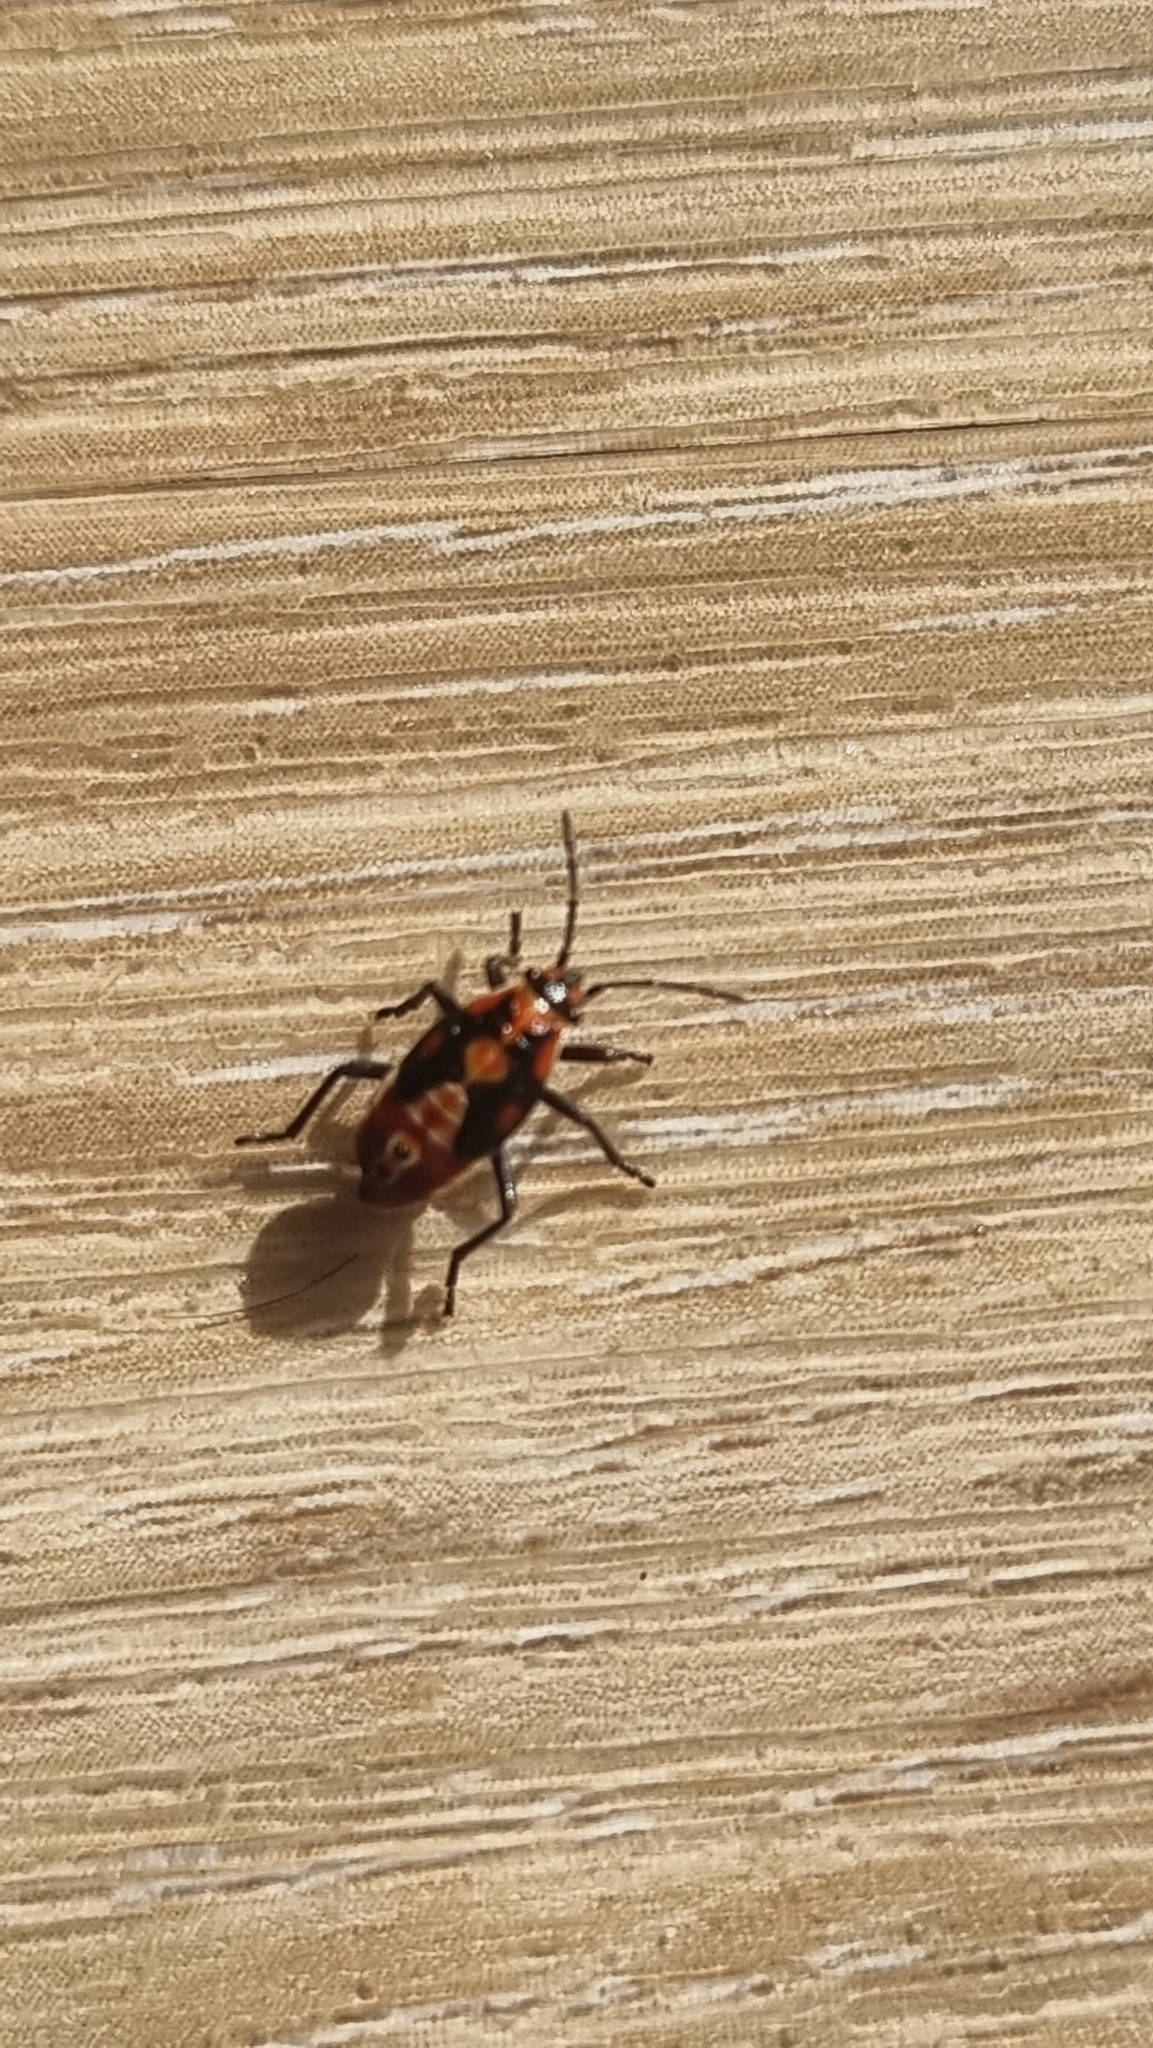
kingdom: Animalia
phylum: Arthropoda
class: Insecta
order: Hemiptera
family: Lygaeidae
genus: Spilostethus
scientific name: Spilostethus pandurus
